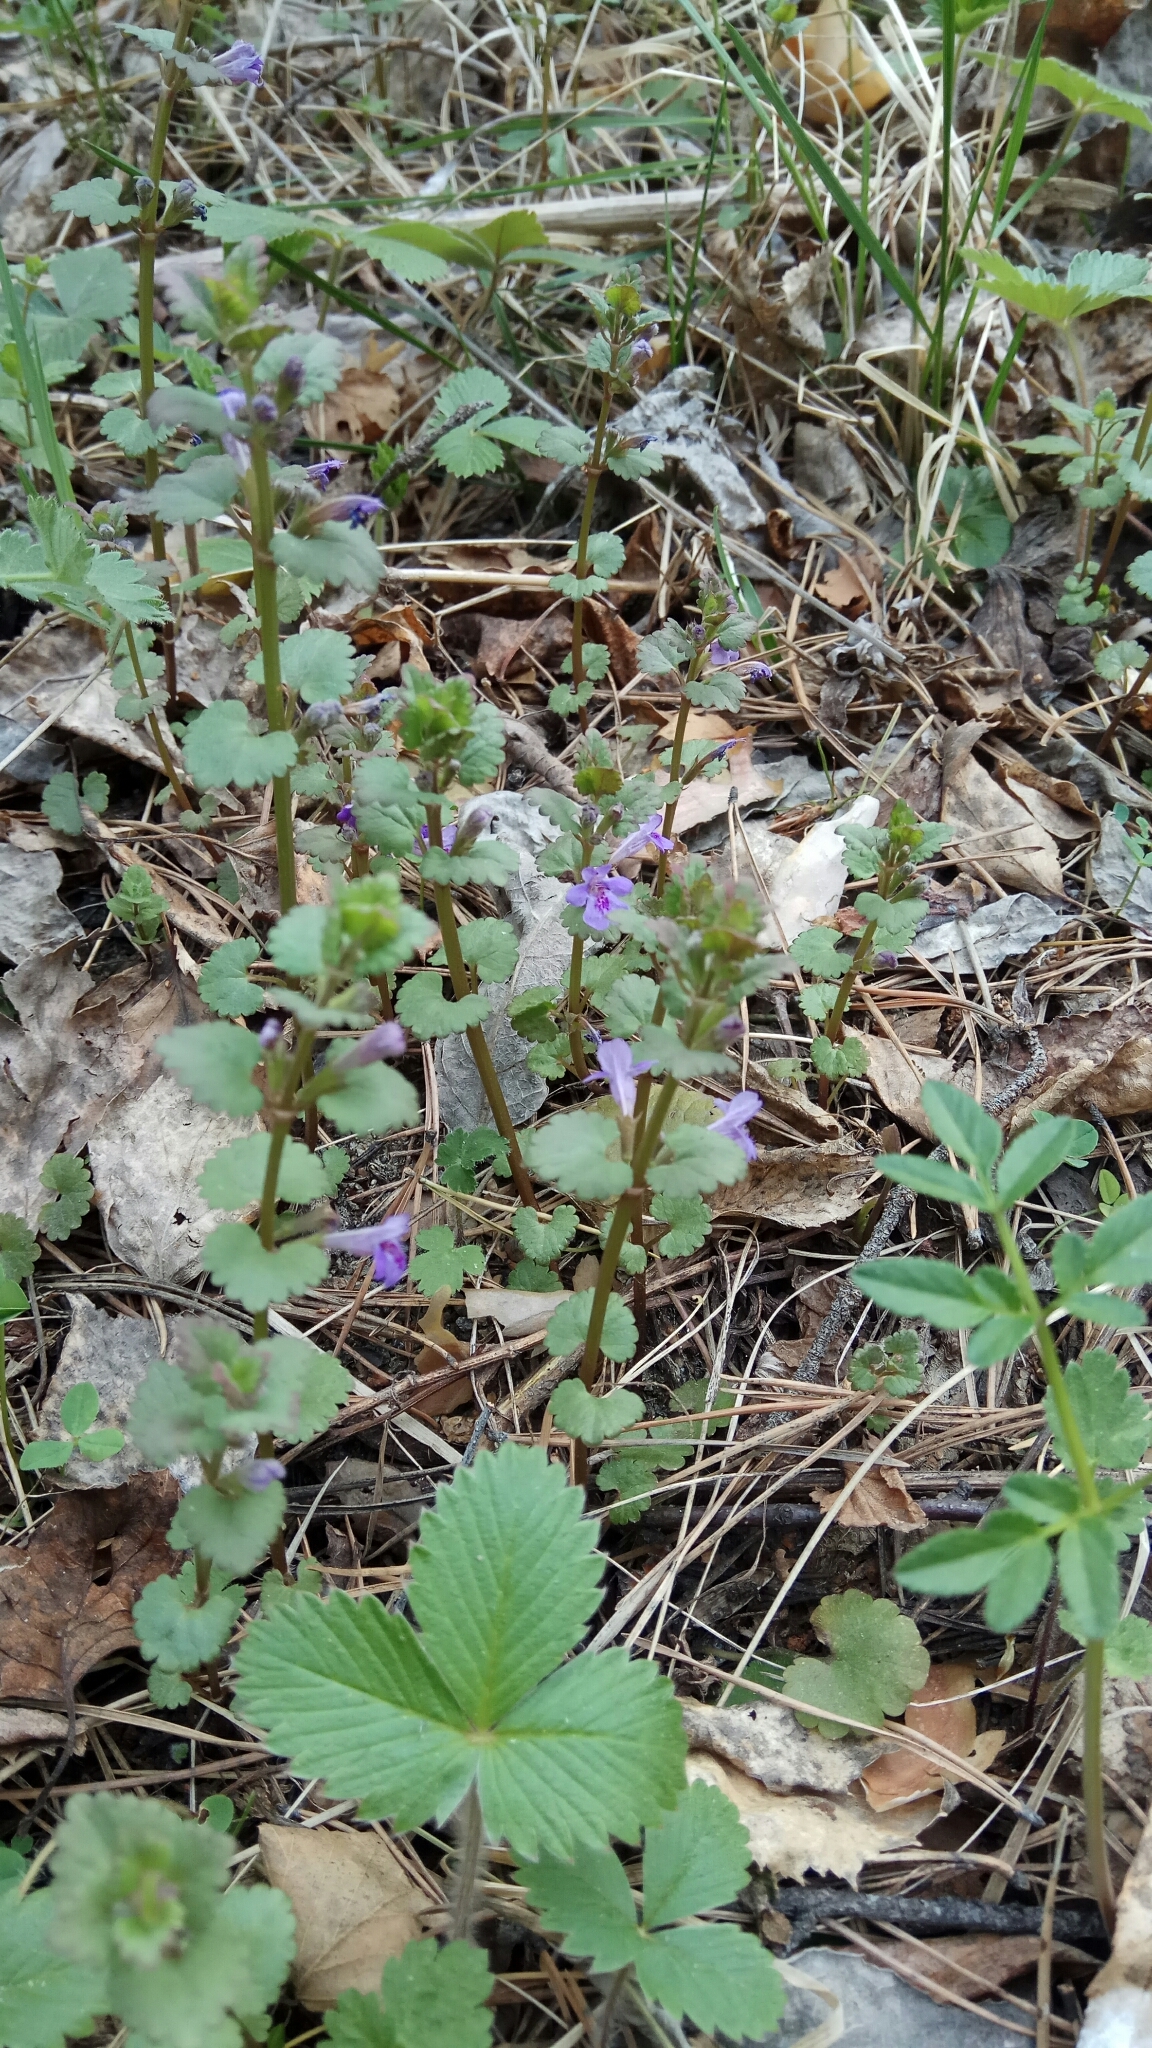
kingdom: Plantae
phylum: Tracheophyta
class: Magnoliopsida
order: Lamiales
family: Lamiaceae
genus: Glechoma
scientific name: Glechoma hederacea
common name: Ground ivy
